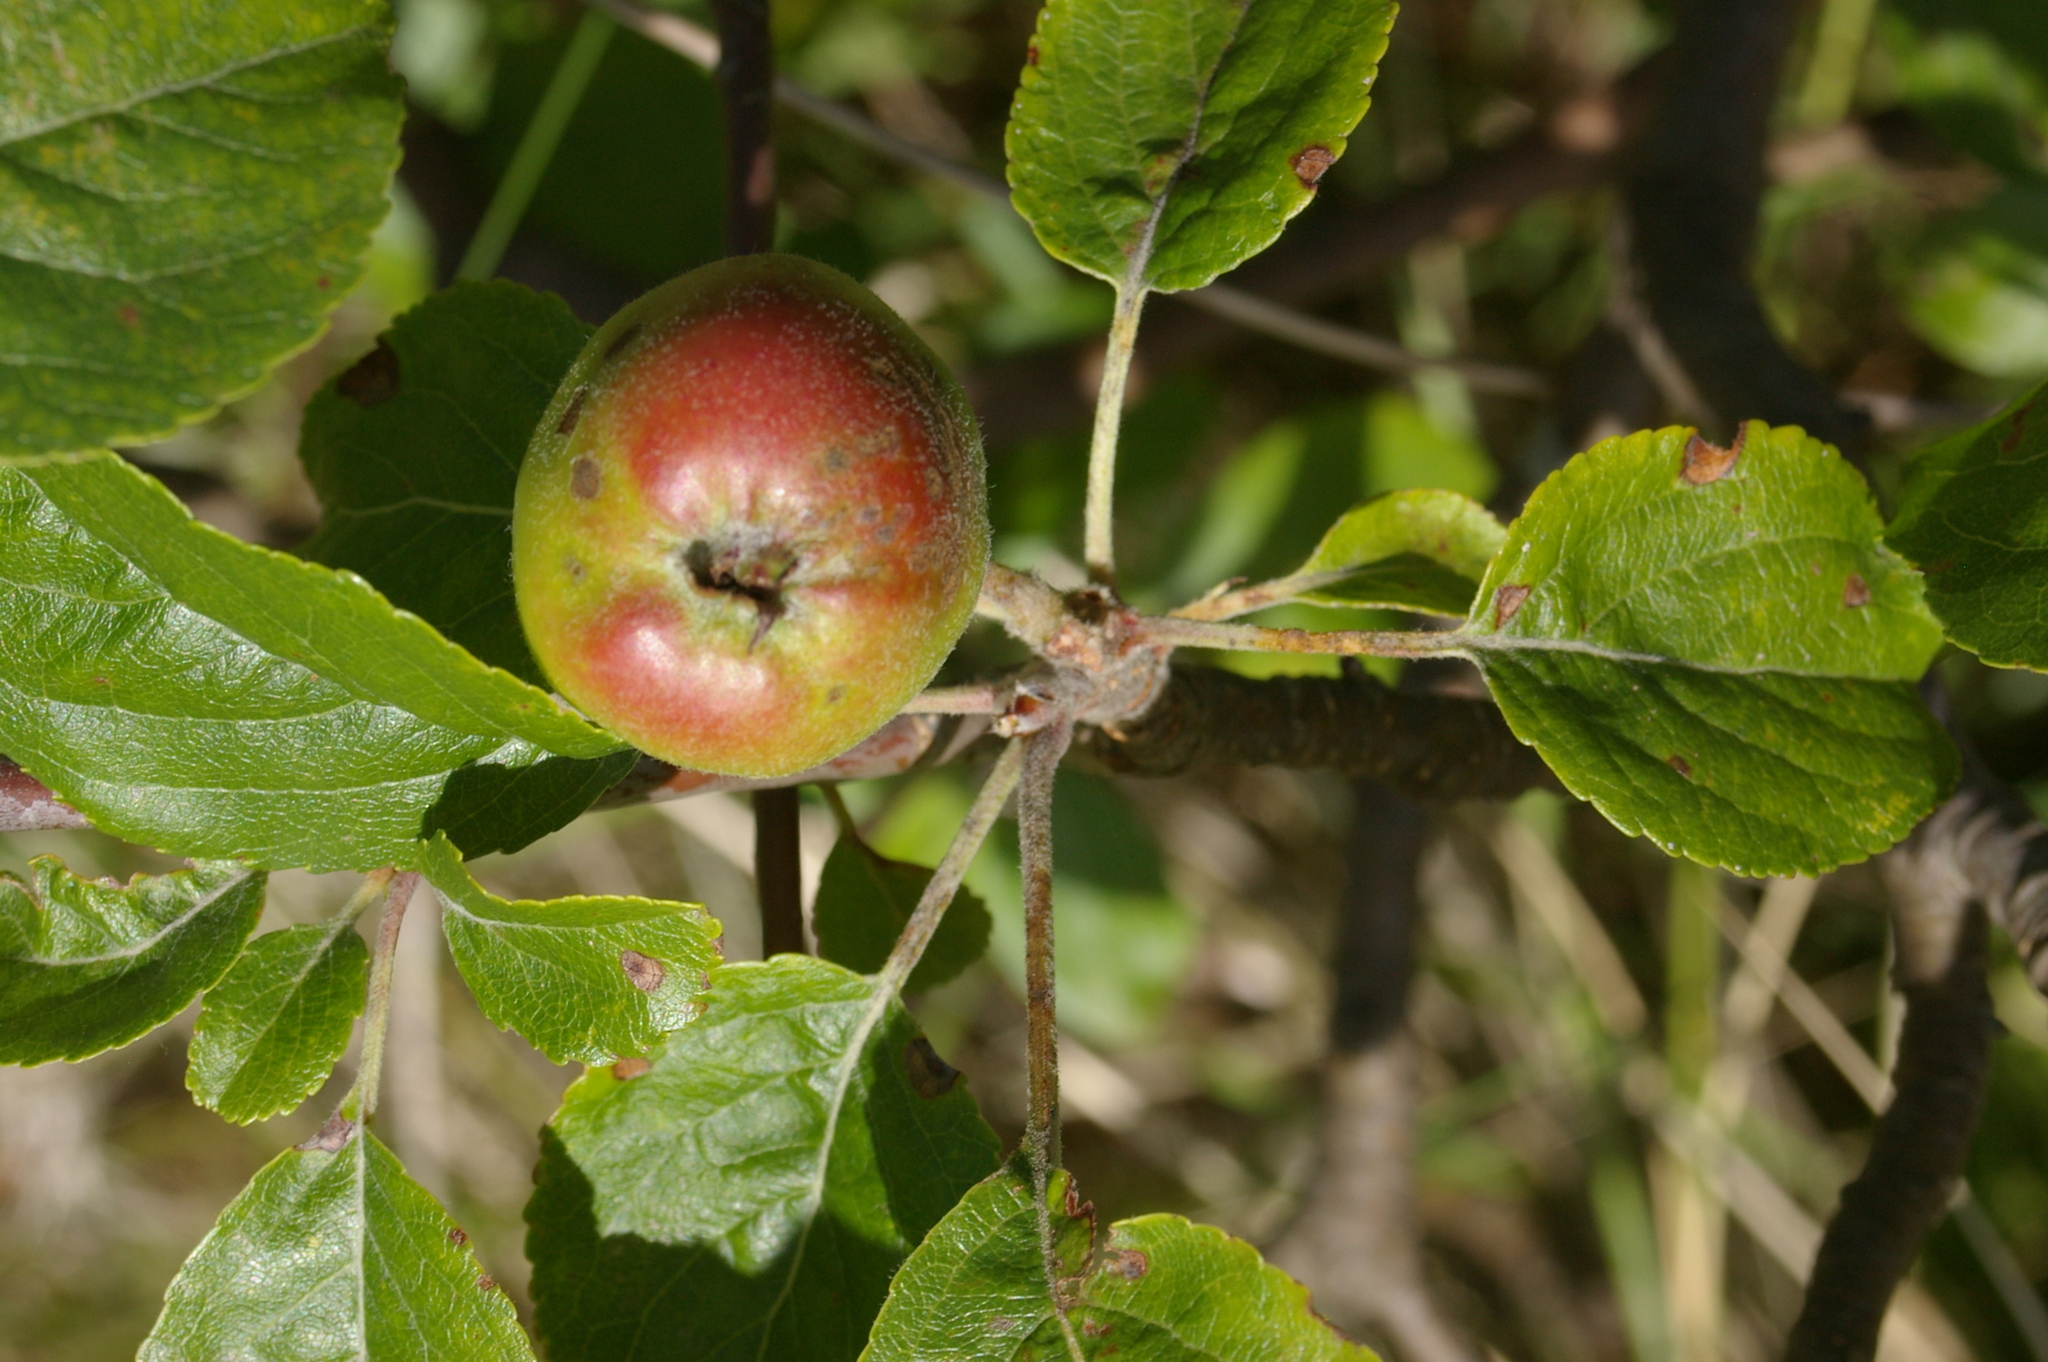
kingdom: Plantae
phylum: Tracheophyta
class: Magnoliopsida
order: Rosales
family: Rosaceae
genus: Malus
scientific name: Malus domestica
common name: Apple
